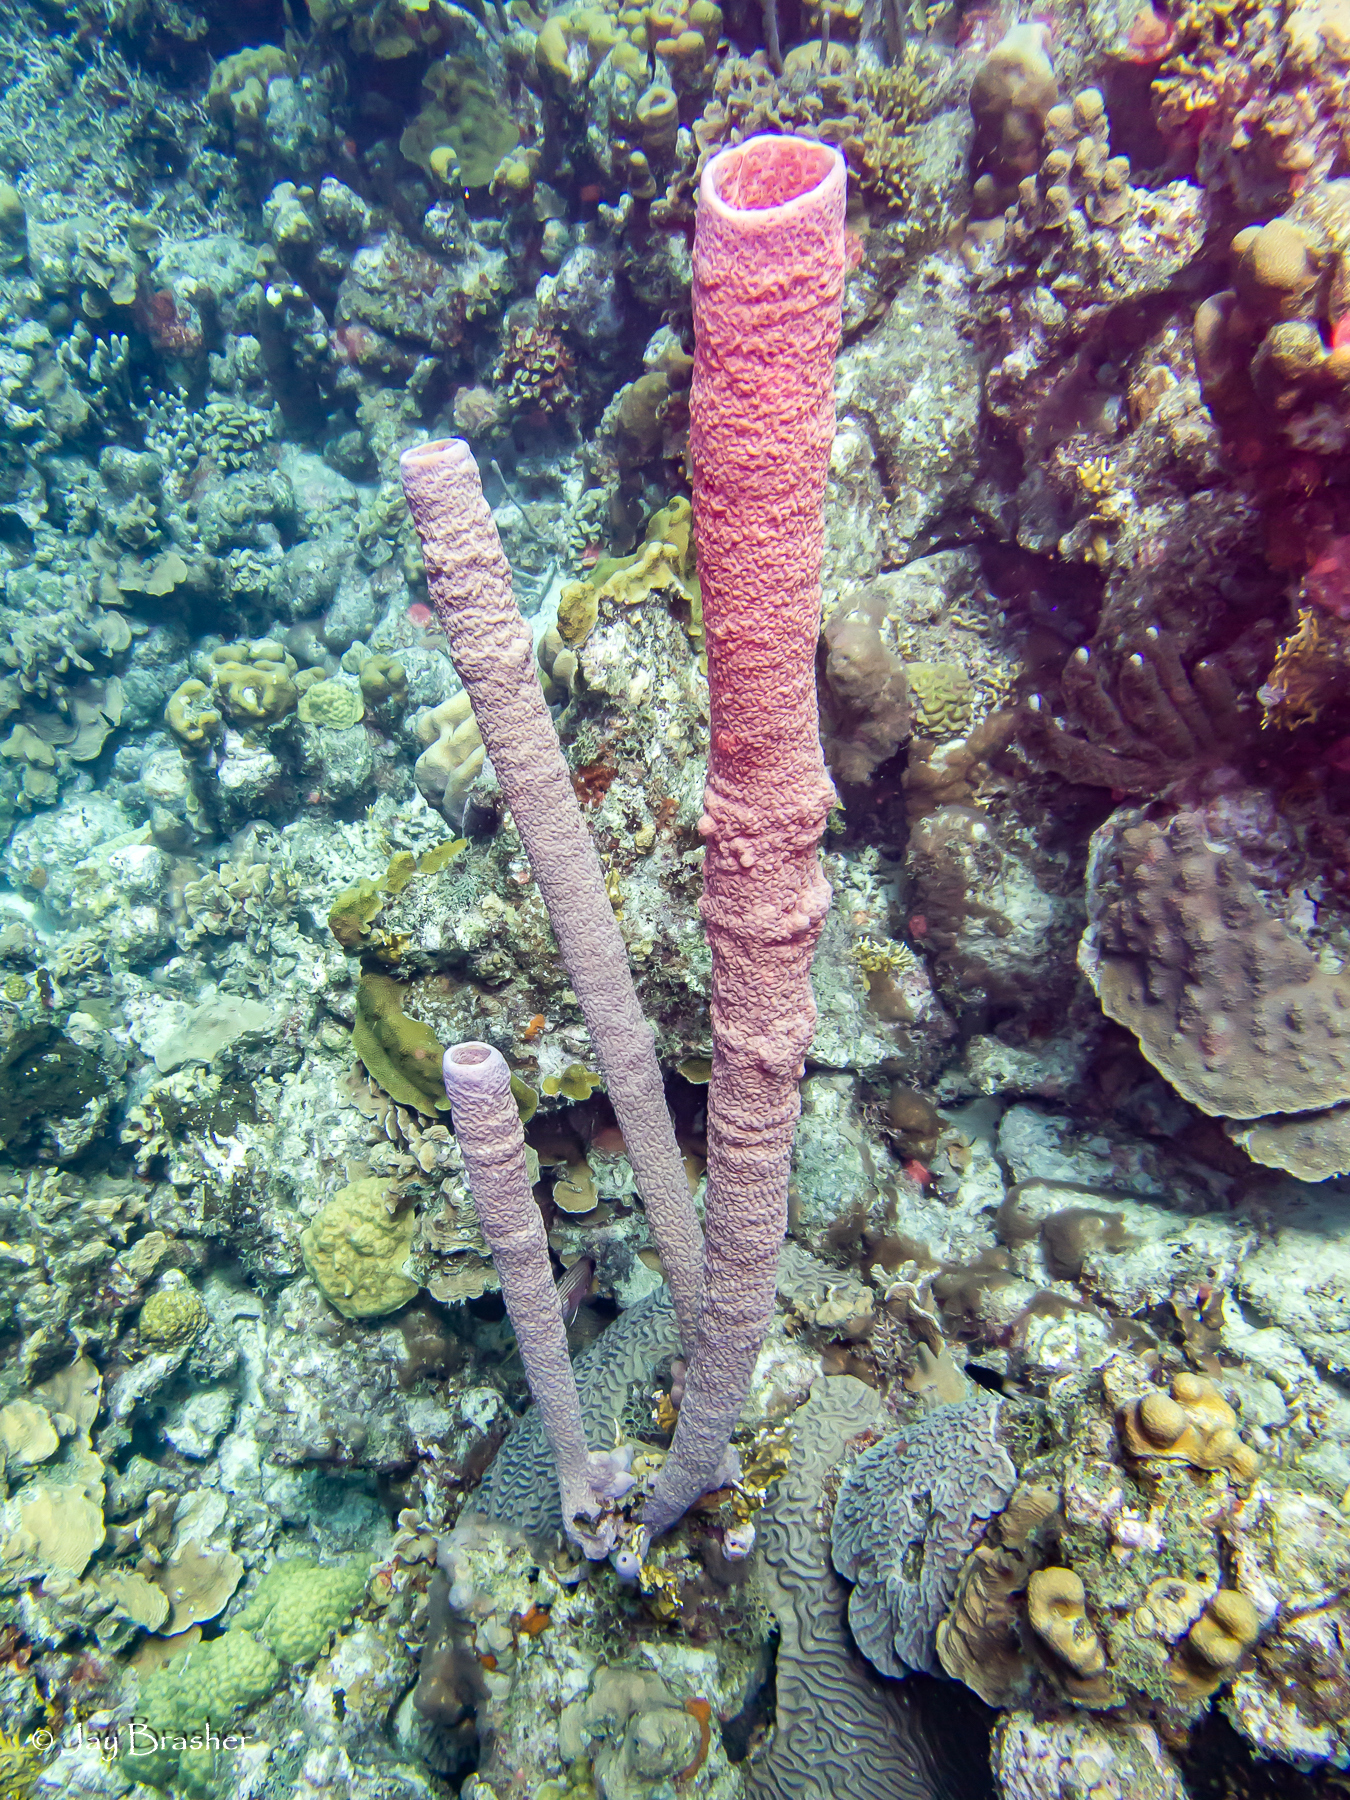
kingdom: Animalia
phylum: Porifera
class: Demospongiae
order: Verongiida
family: Aplysinidae
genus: Aplysina
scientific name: Aplysina archeri
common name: Stove-pipe sponge
